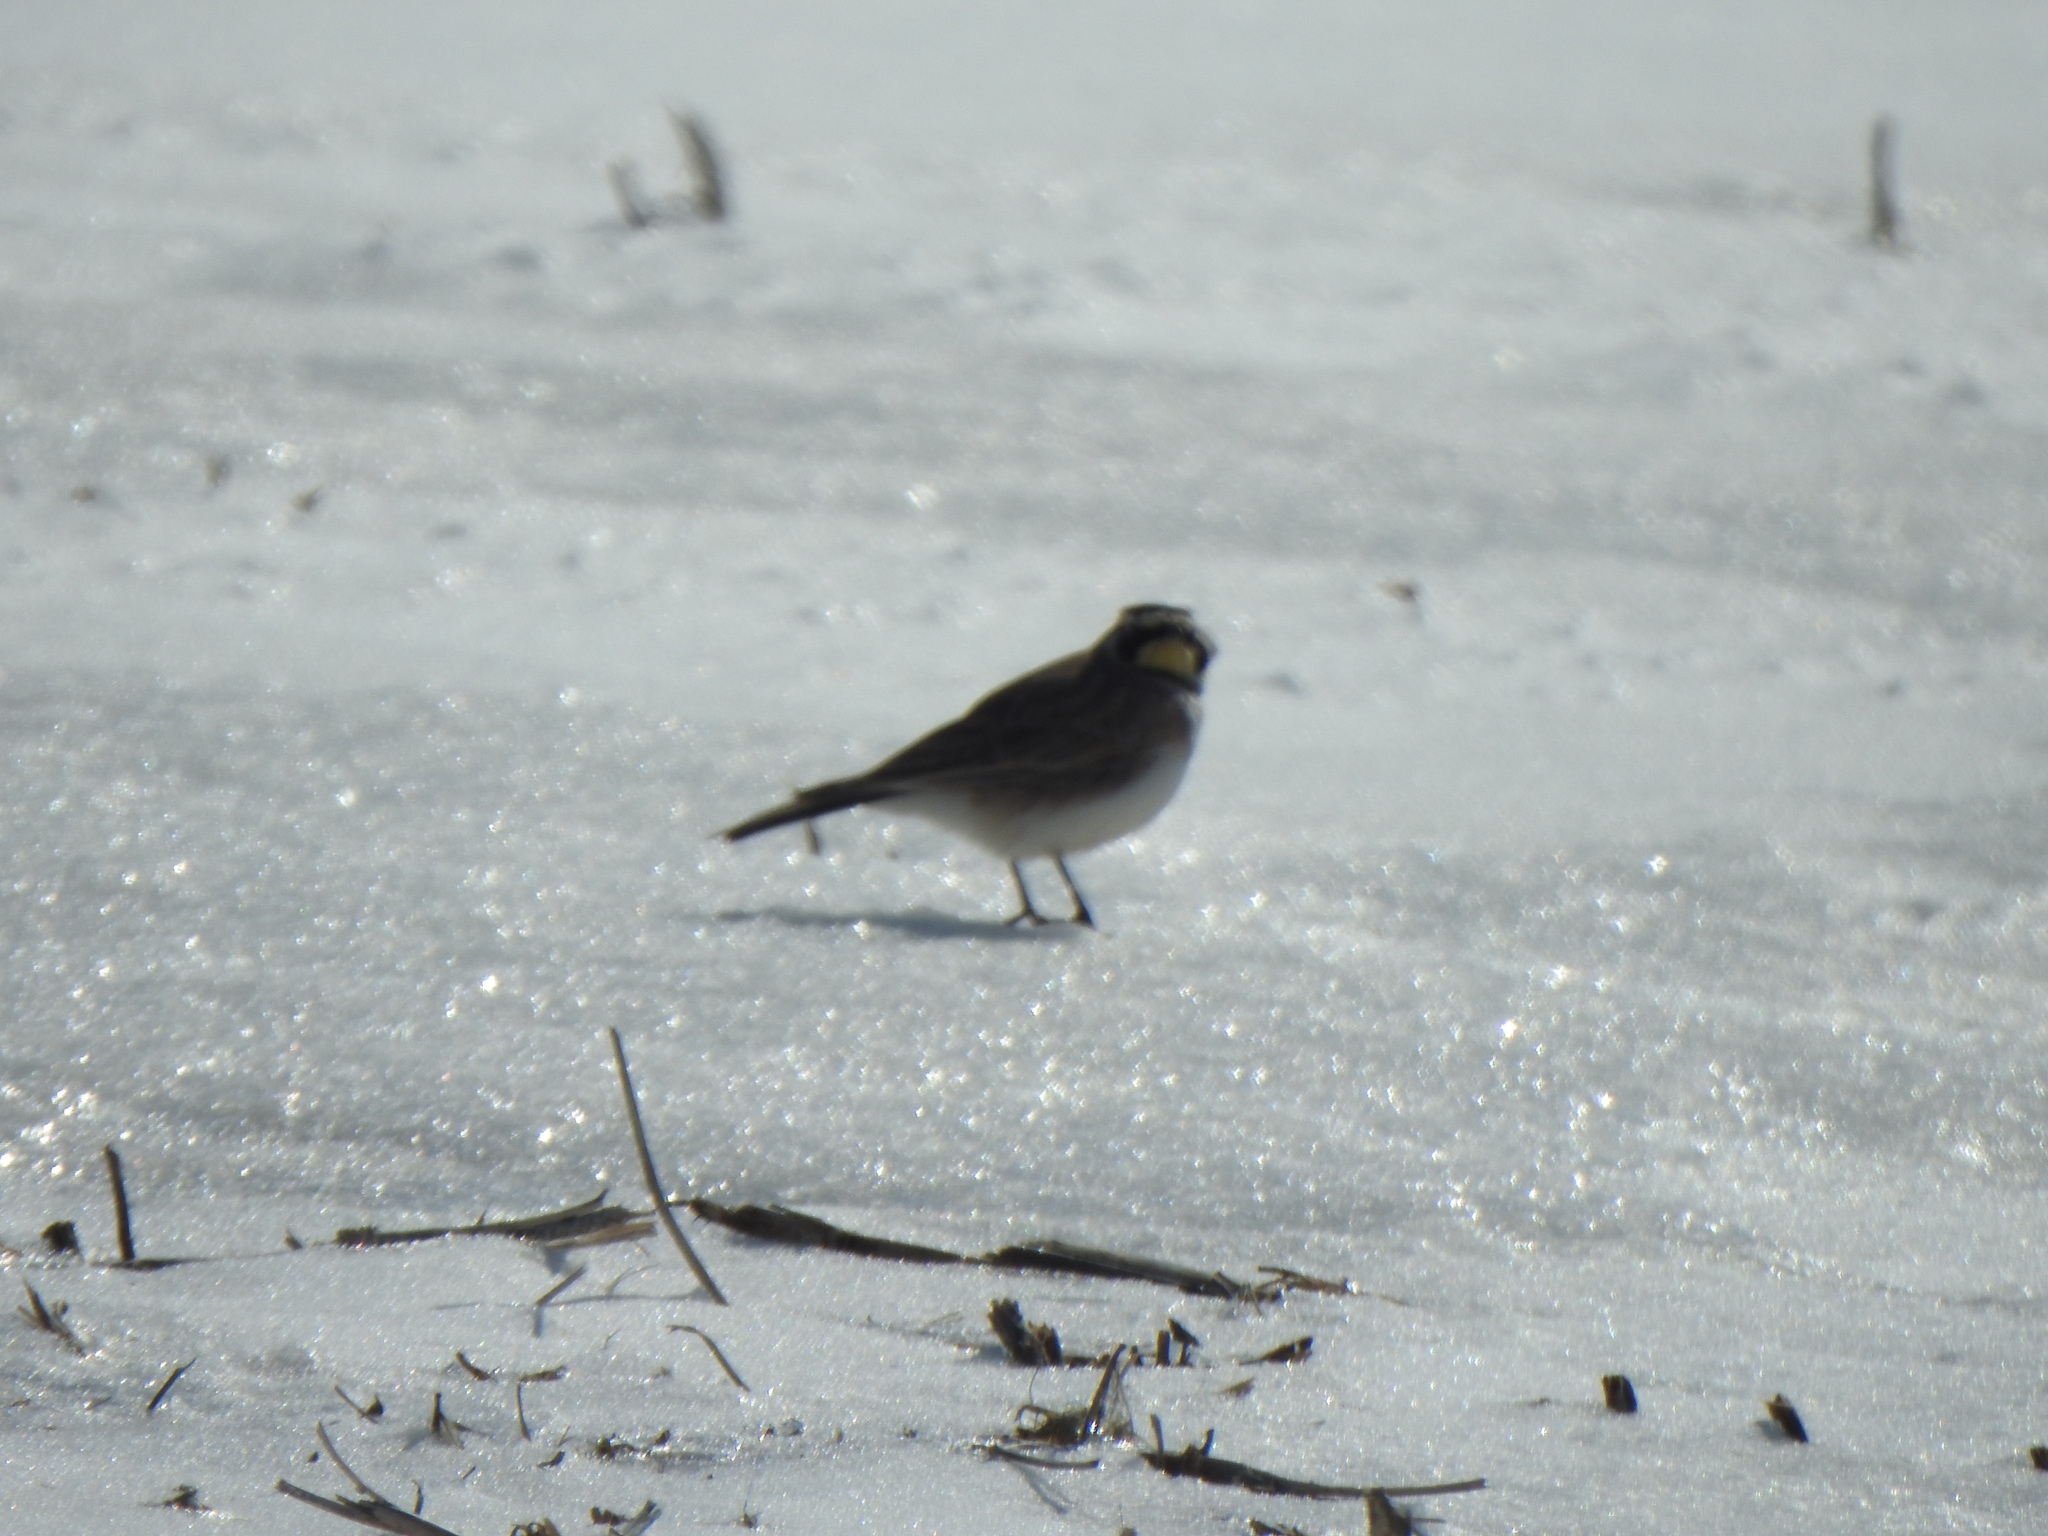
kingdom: Animalia
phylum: Chordata
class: Aves
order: Passeriformes
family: Alaudidae
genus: Eremophila
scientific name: Eremophila alpestris
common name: Horned lark
